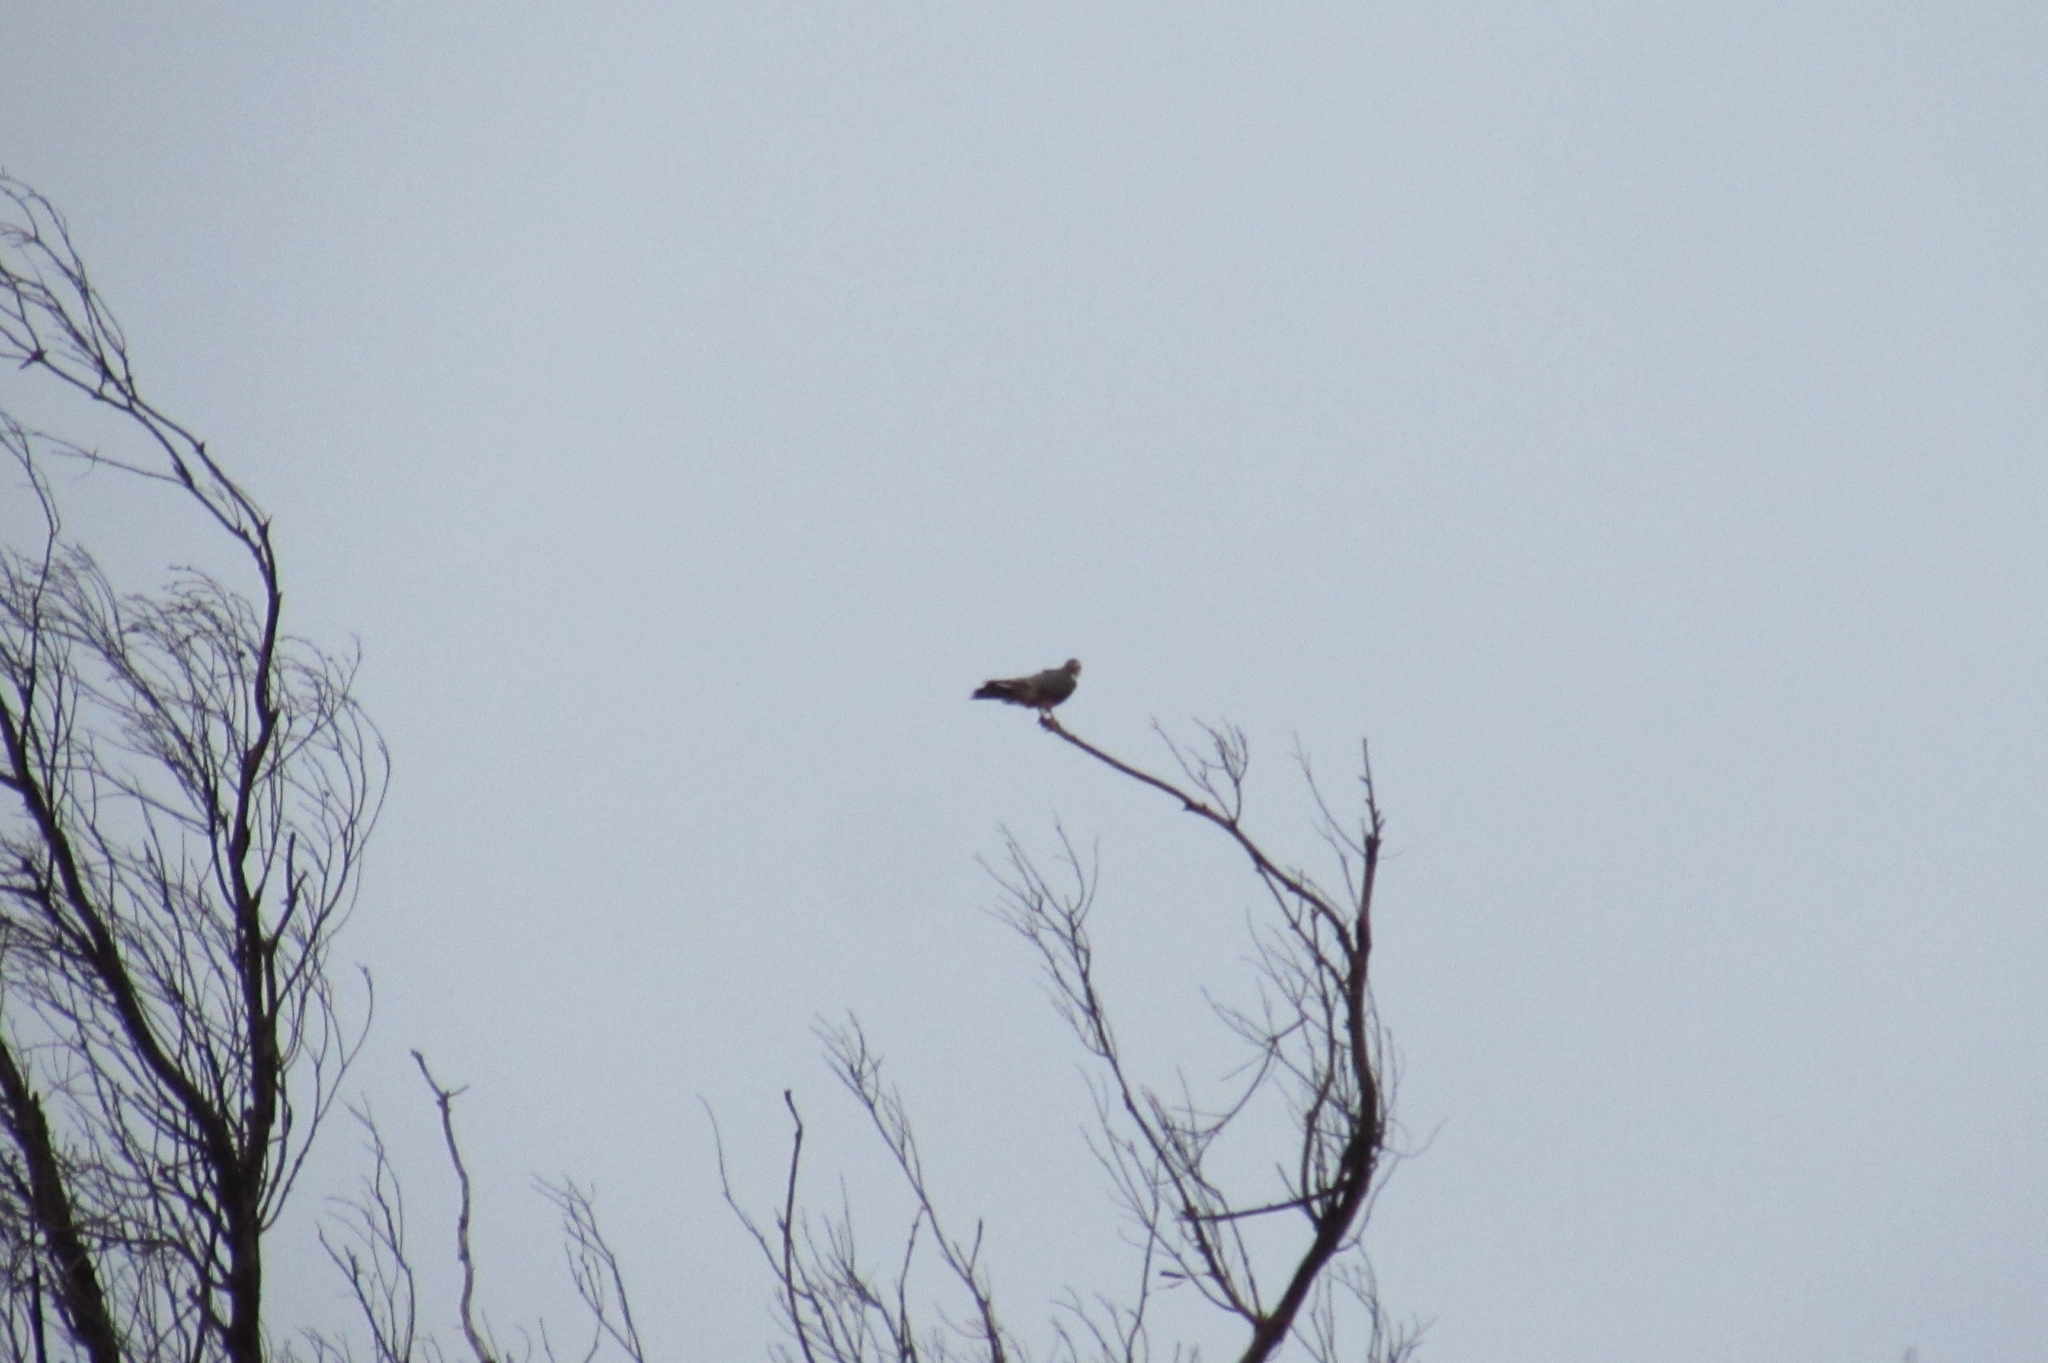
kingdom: Animalia
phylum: Chordata
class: Aves
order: Falconiformes
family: Falconidae
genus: Falco
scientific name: Falco femoralis
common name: Aplomado falcon
